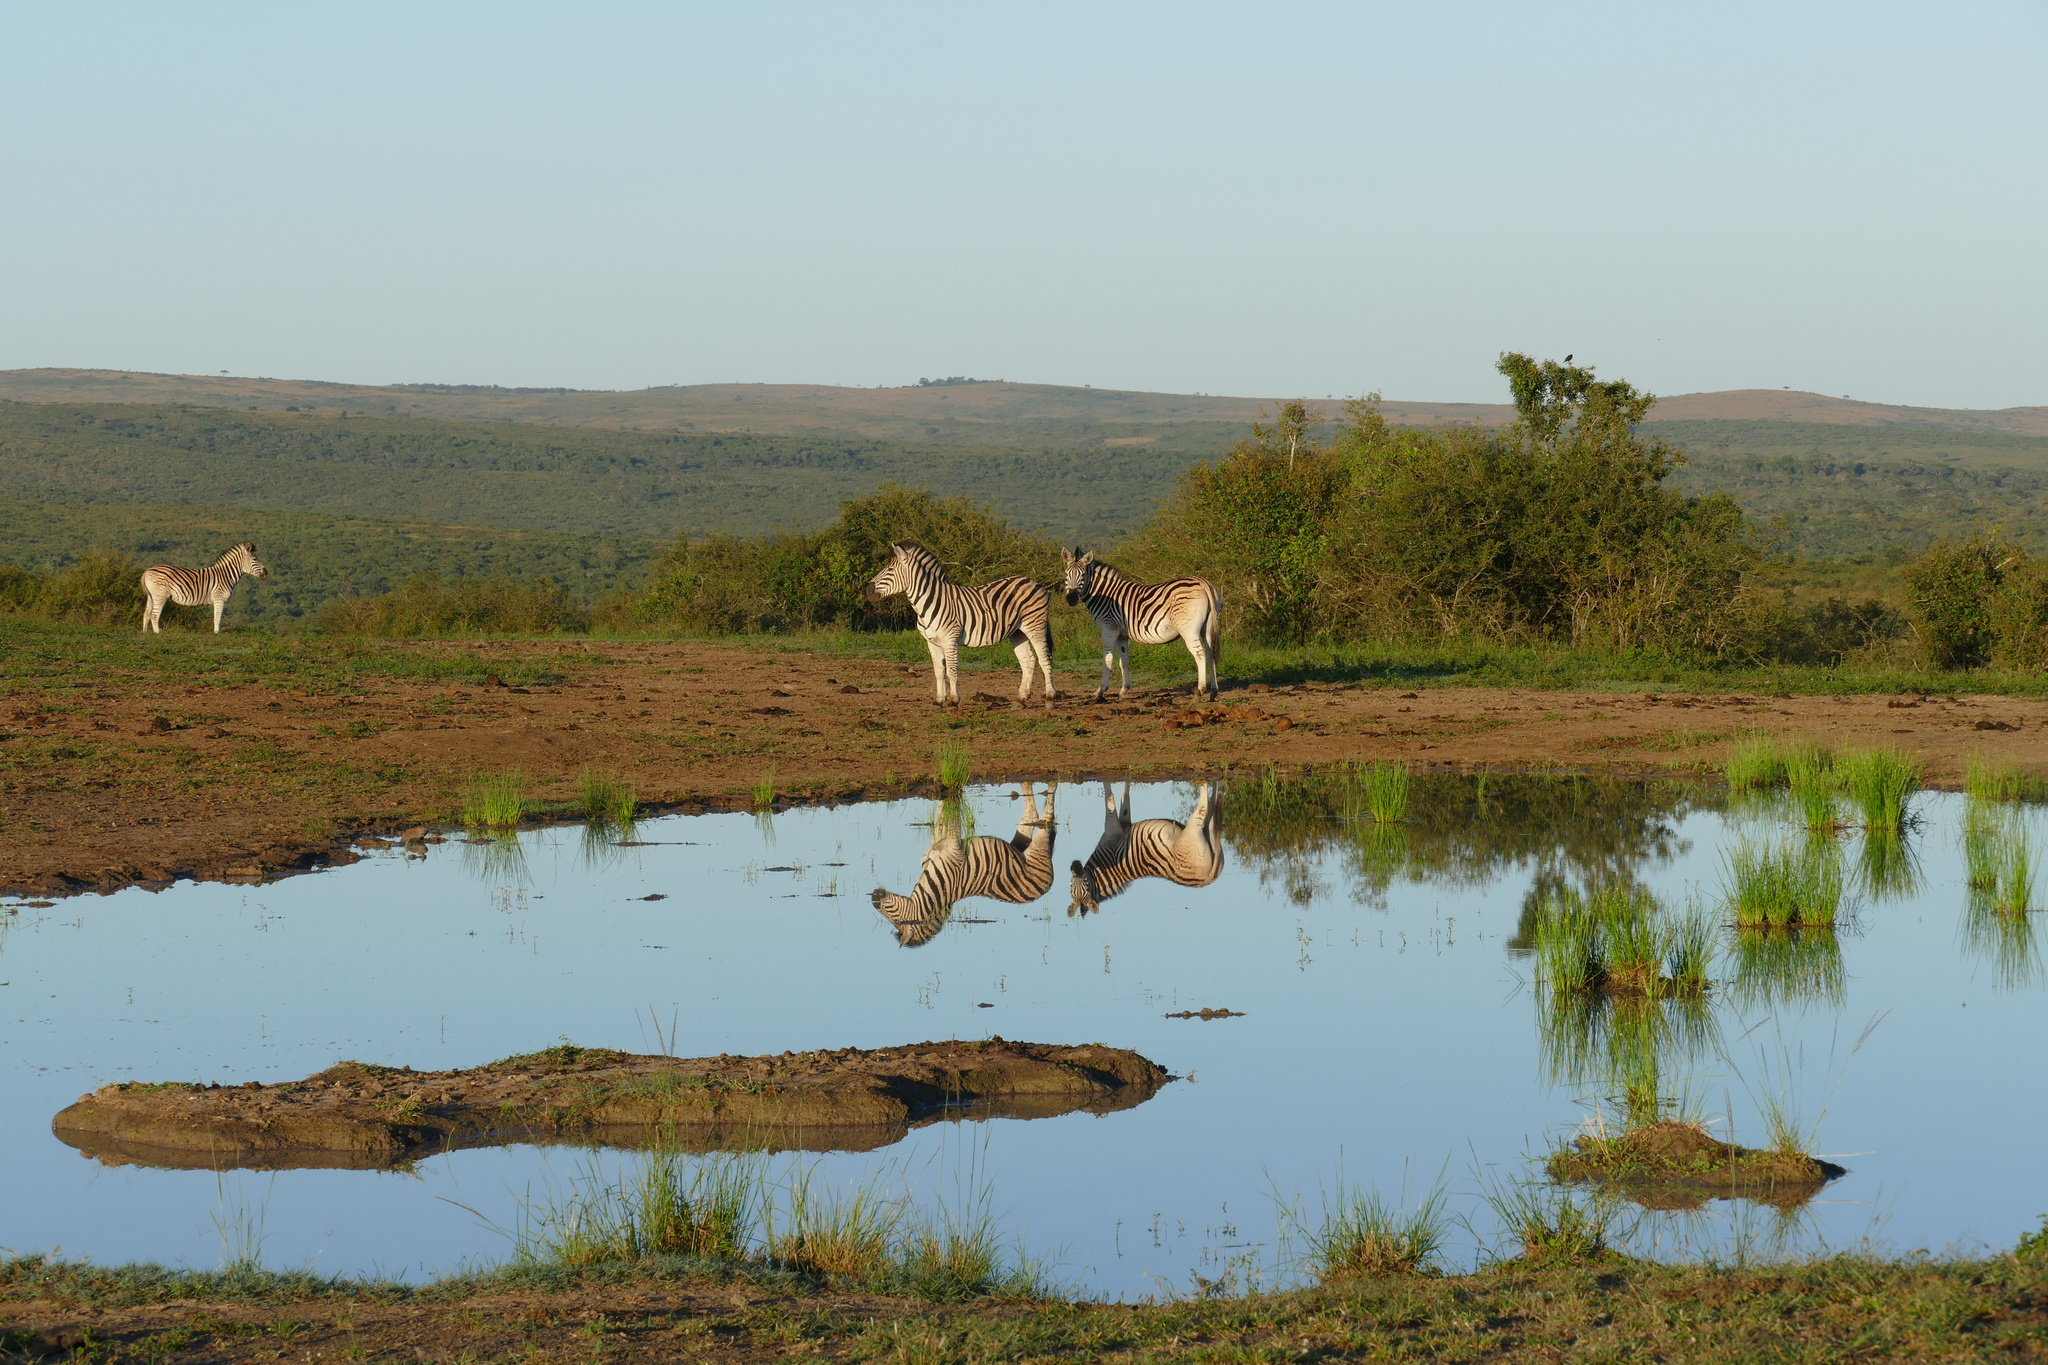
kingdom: Animalia
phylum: Chordata
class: Mammalia
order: Perissodactyla
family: Equidae
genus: Equus
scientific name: Equus quagga
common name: Plains zebra
